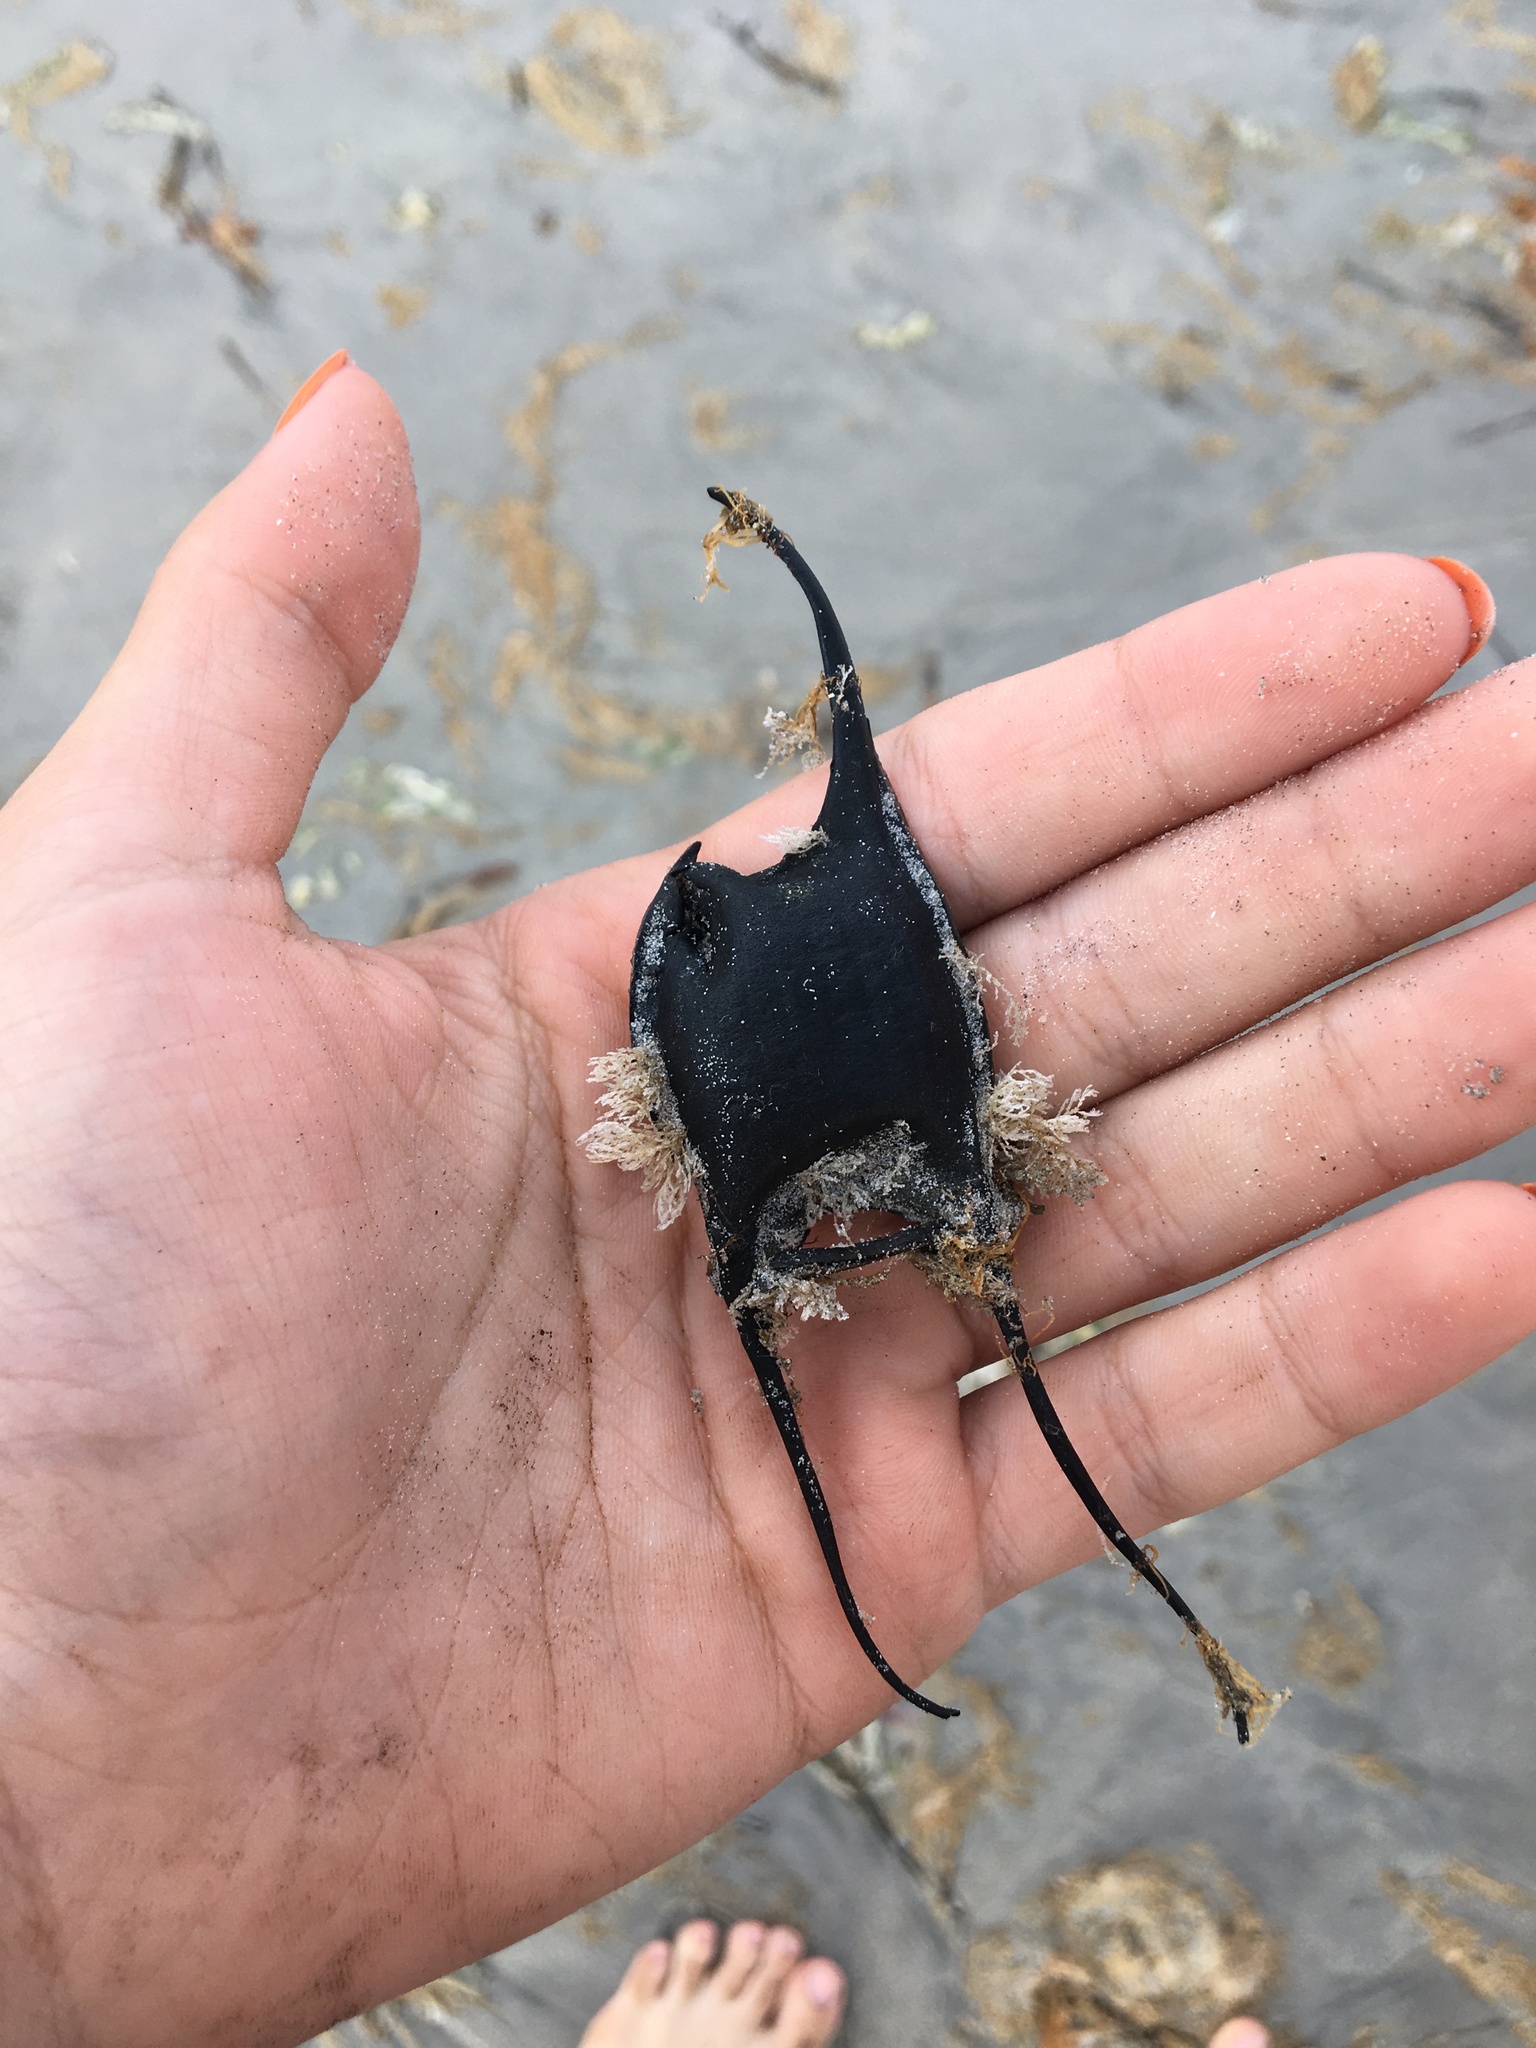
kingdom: Animalia
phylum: Chordata
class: Elasmobranchii
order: Rajiformes
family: Rajidae
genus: Leucoraja
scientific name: Leucoraja erinacea
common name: Little skate
